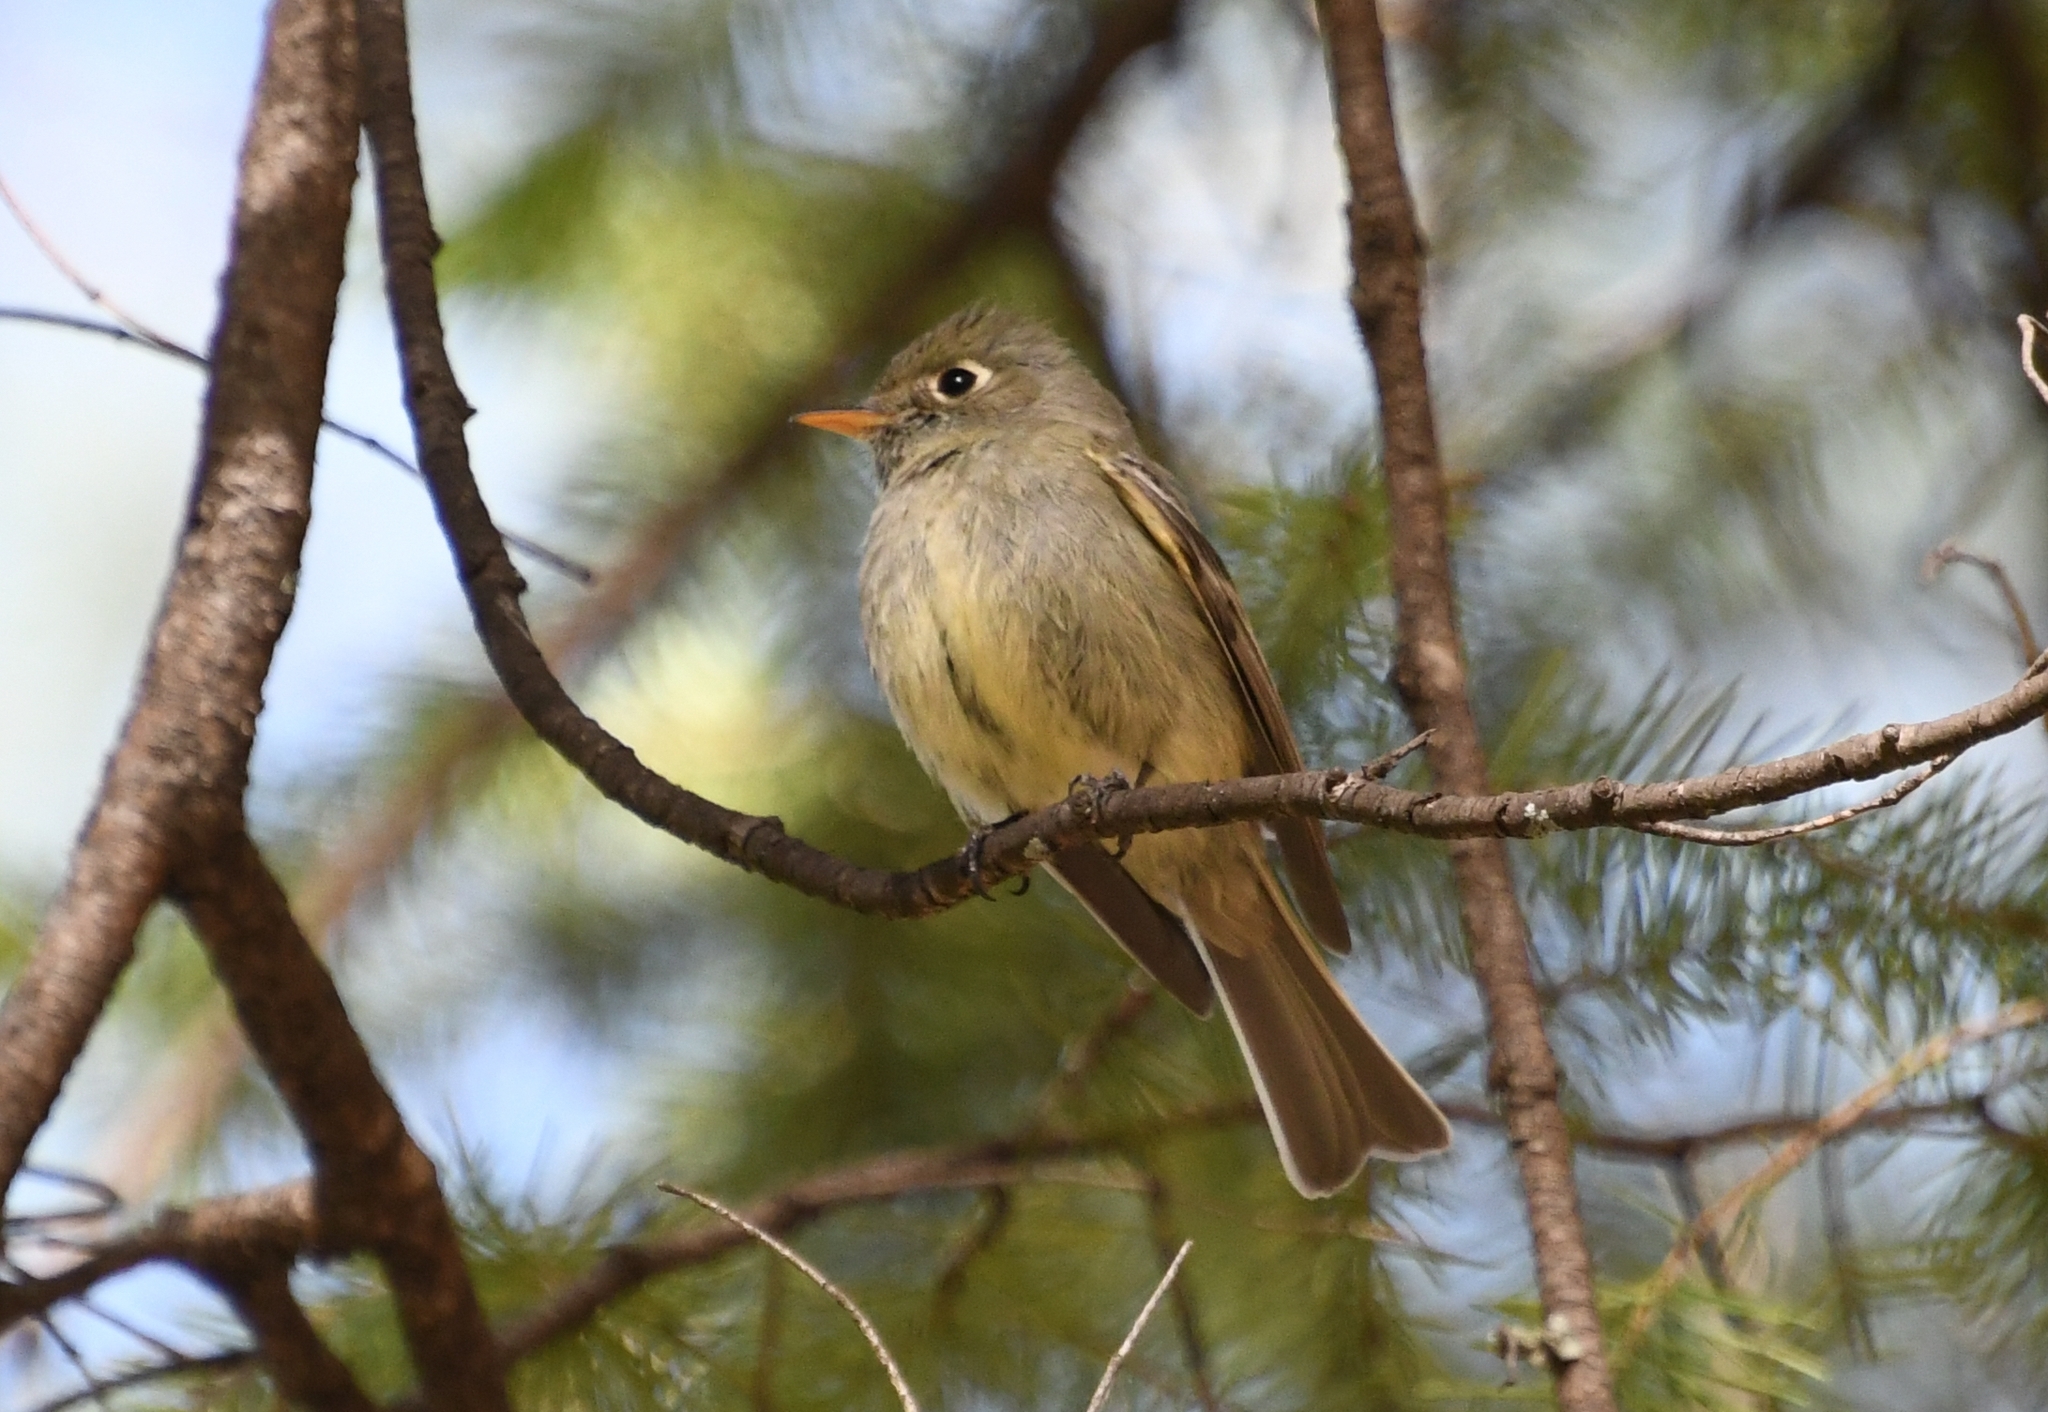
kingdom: Animalia
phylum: Chordata
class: Aves
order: Passeriformes
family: Tyrannidae
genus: Empidonax
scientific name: Empidonax affinis
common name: Pine flycatcher
